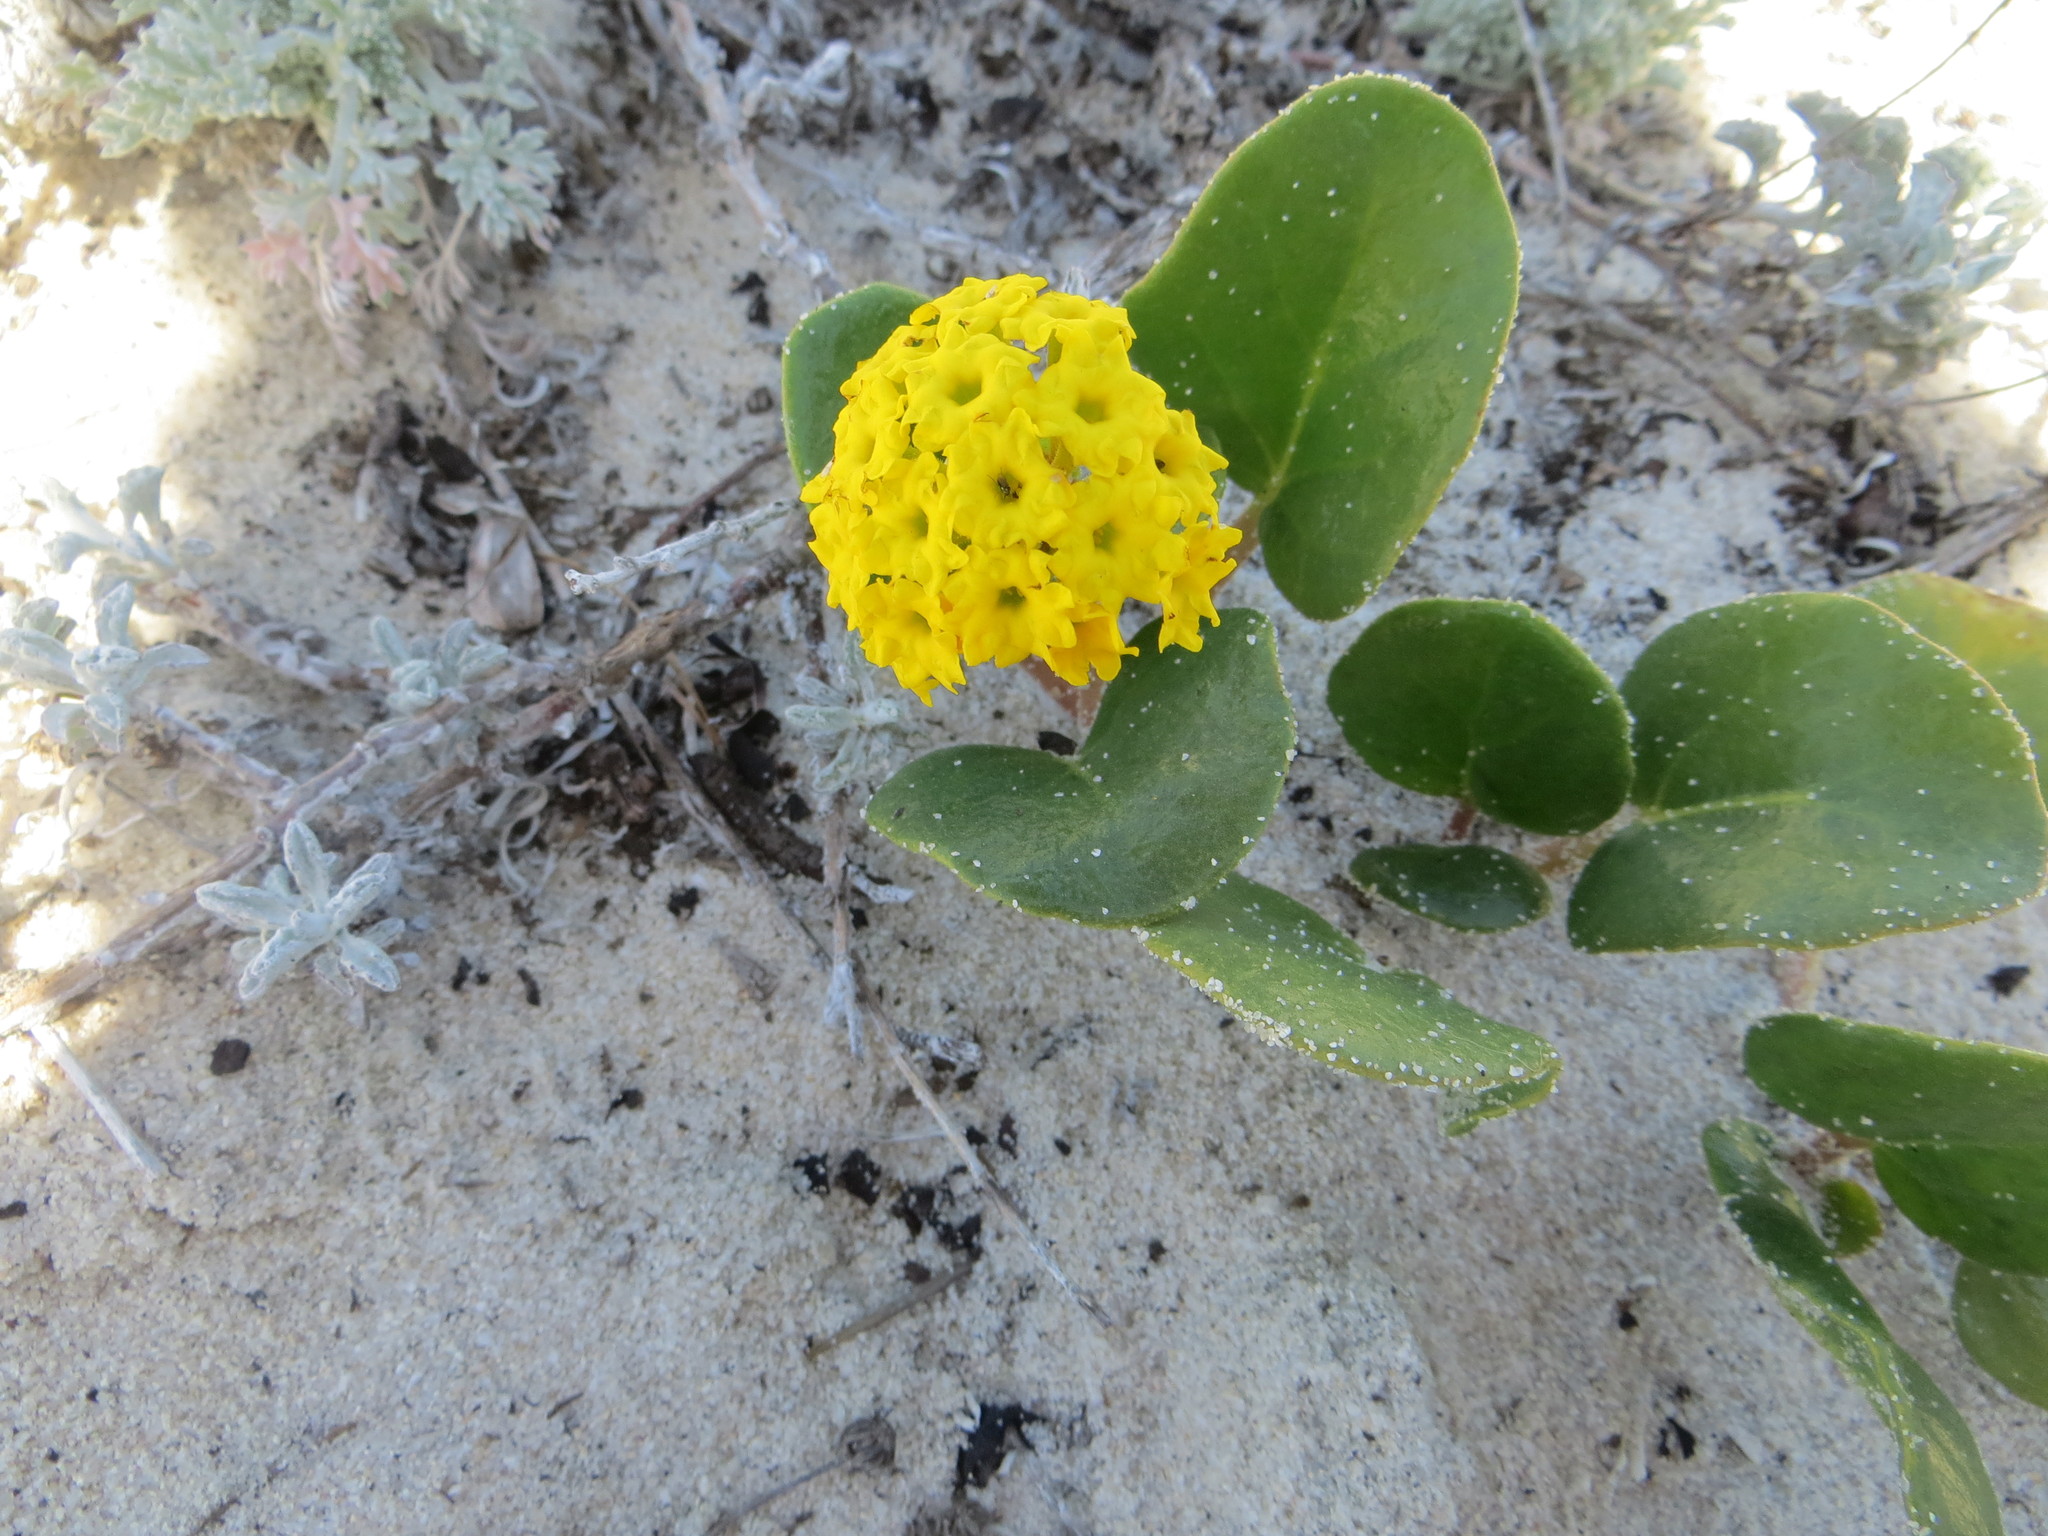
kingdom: Plantae
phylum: Tracheophyta
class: Magnoliopsida
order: Caryophyllales
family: Nyctaginaceae
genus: Abronia
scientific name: Abronia latifolia
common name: Yellow sand-verbena
